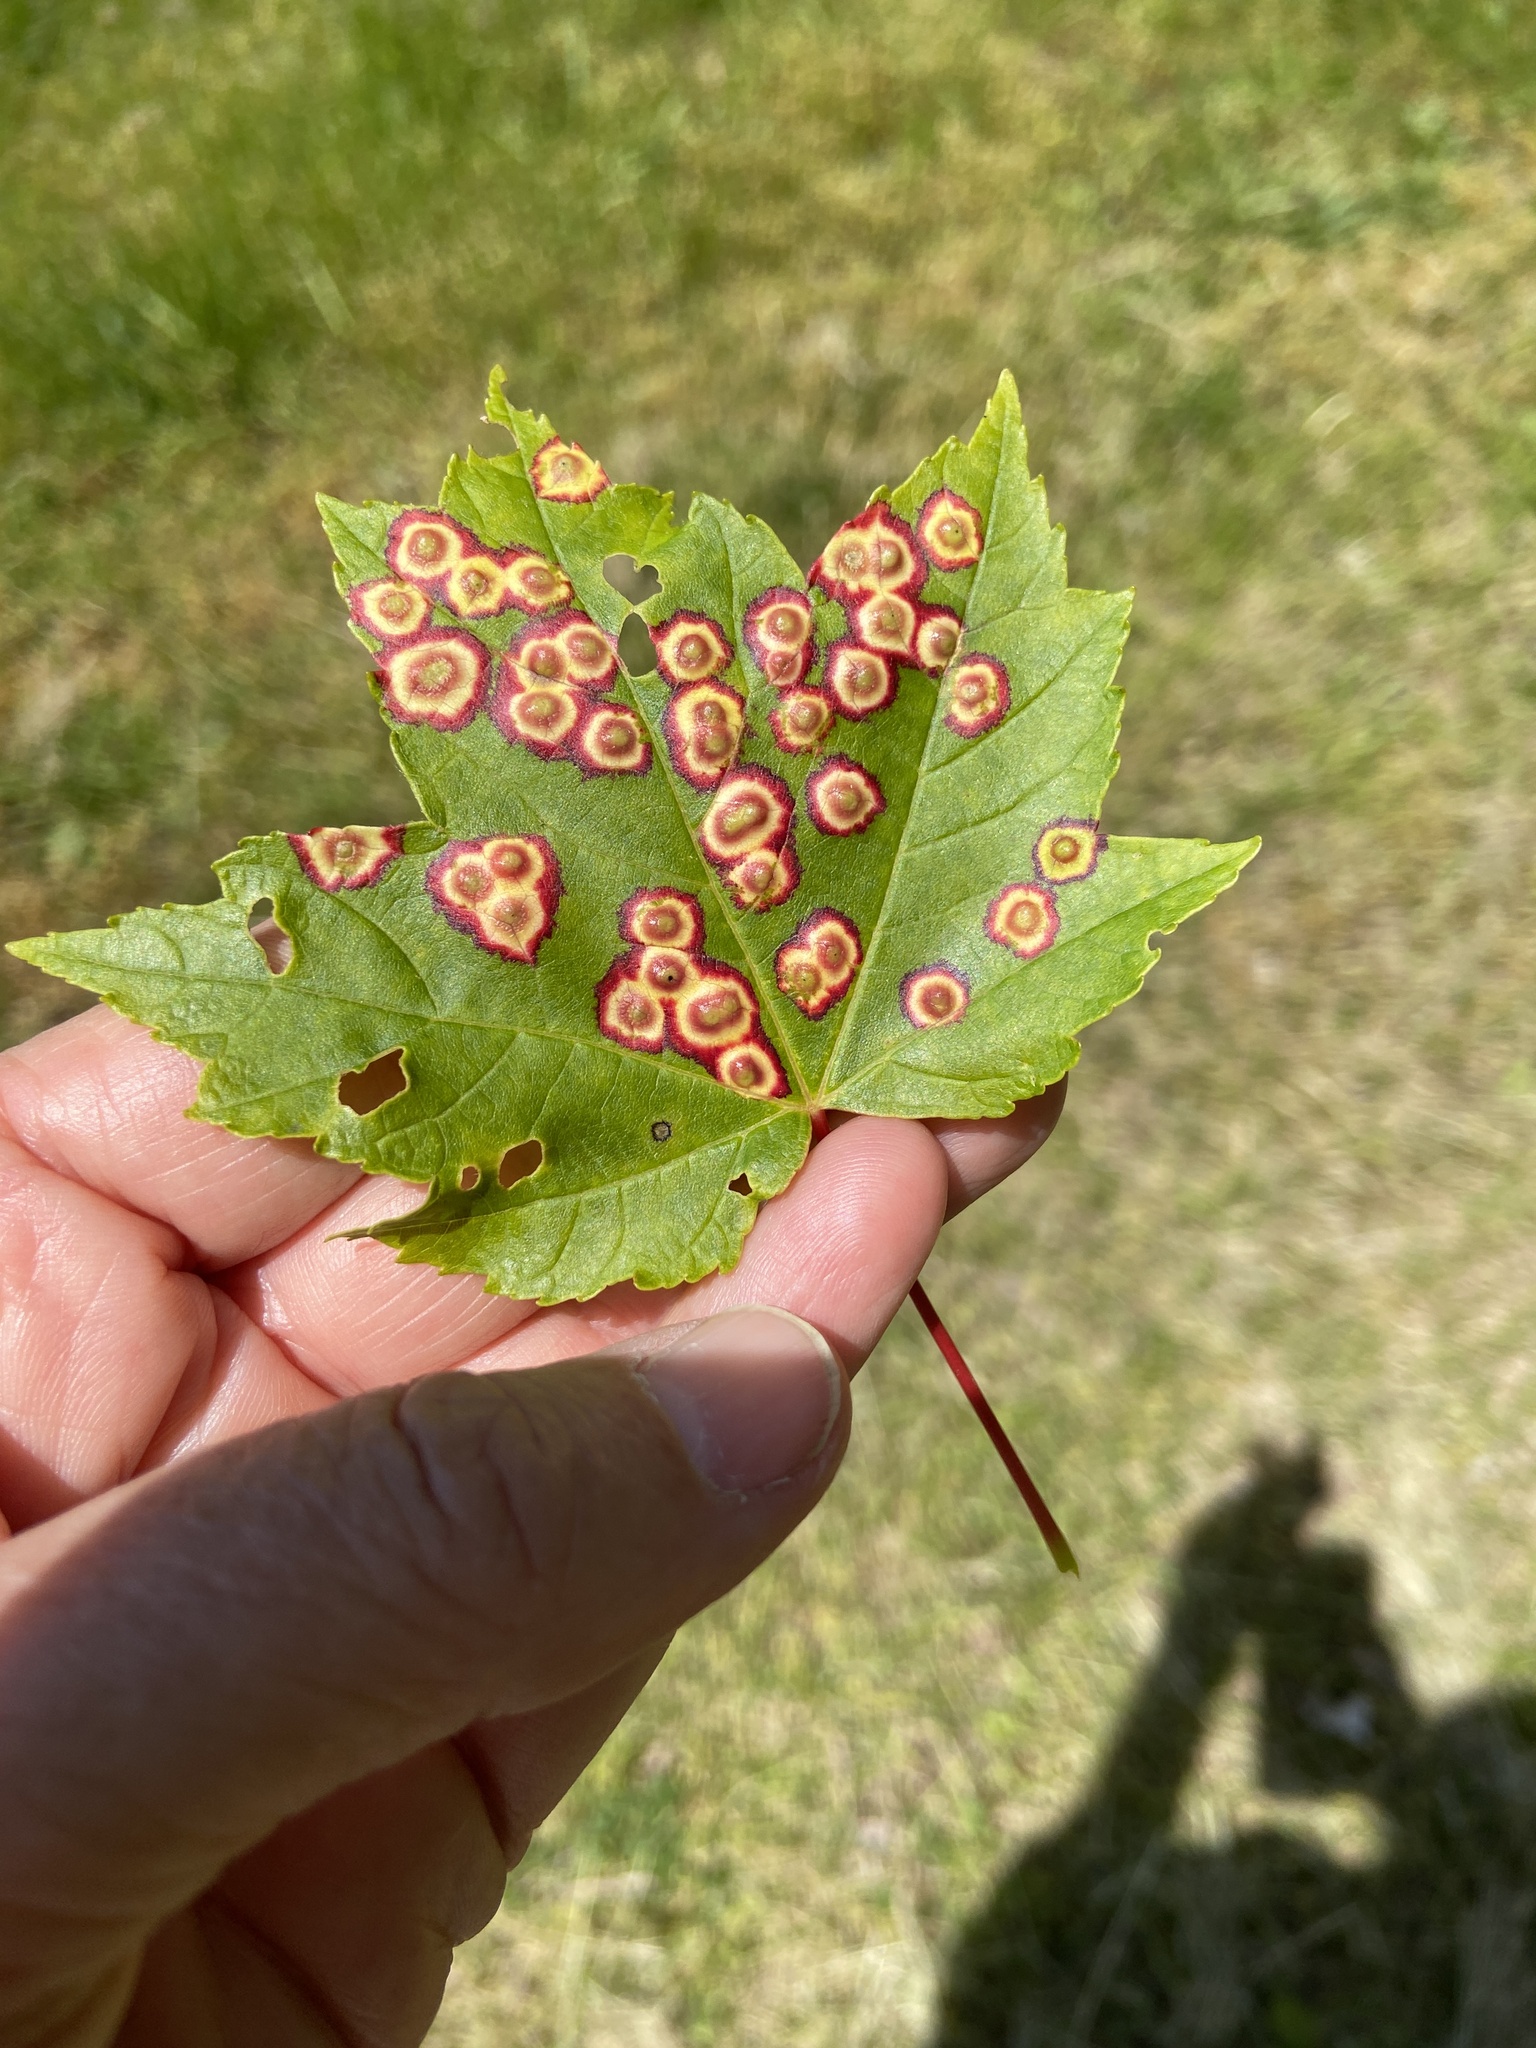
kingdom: Animalia
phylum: Arthropoda
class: Insecta
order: Diptera
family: Cecidomyiidae
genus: Acericecis
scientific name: Acericecis ocellaris
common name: Ocellate gall midge
